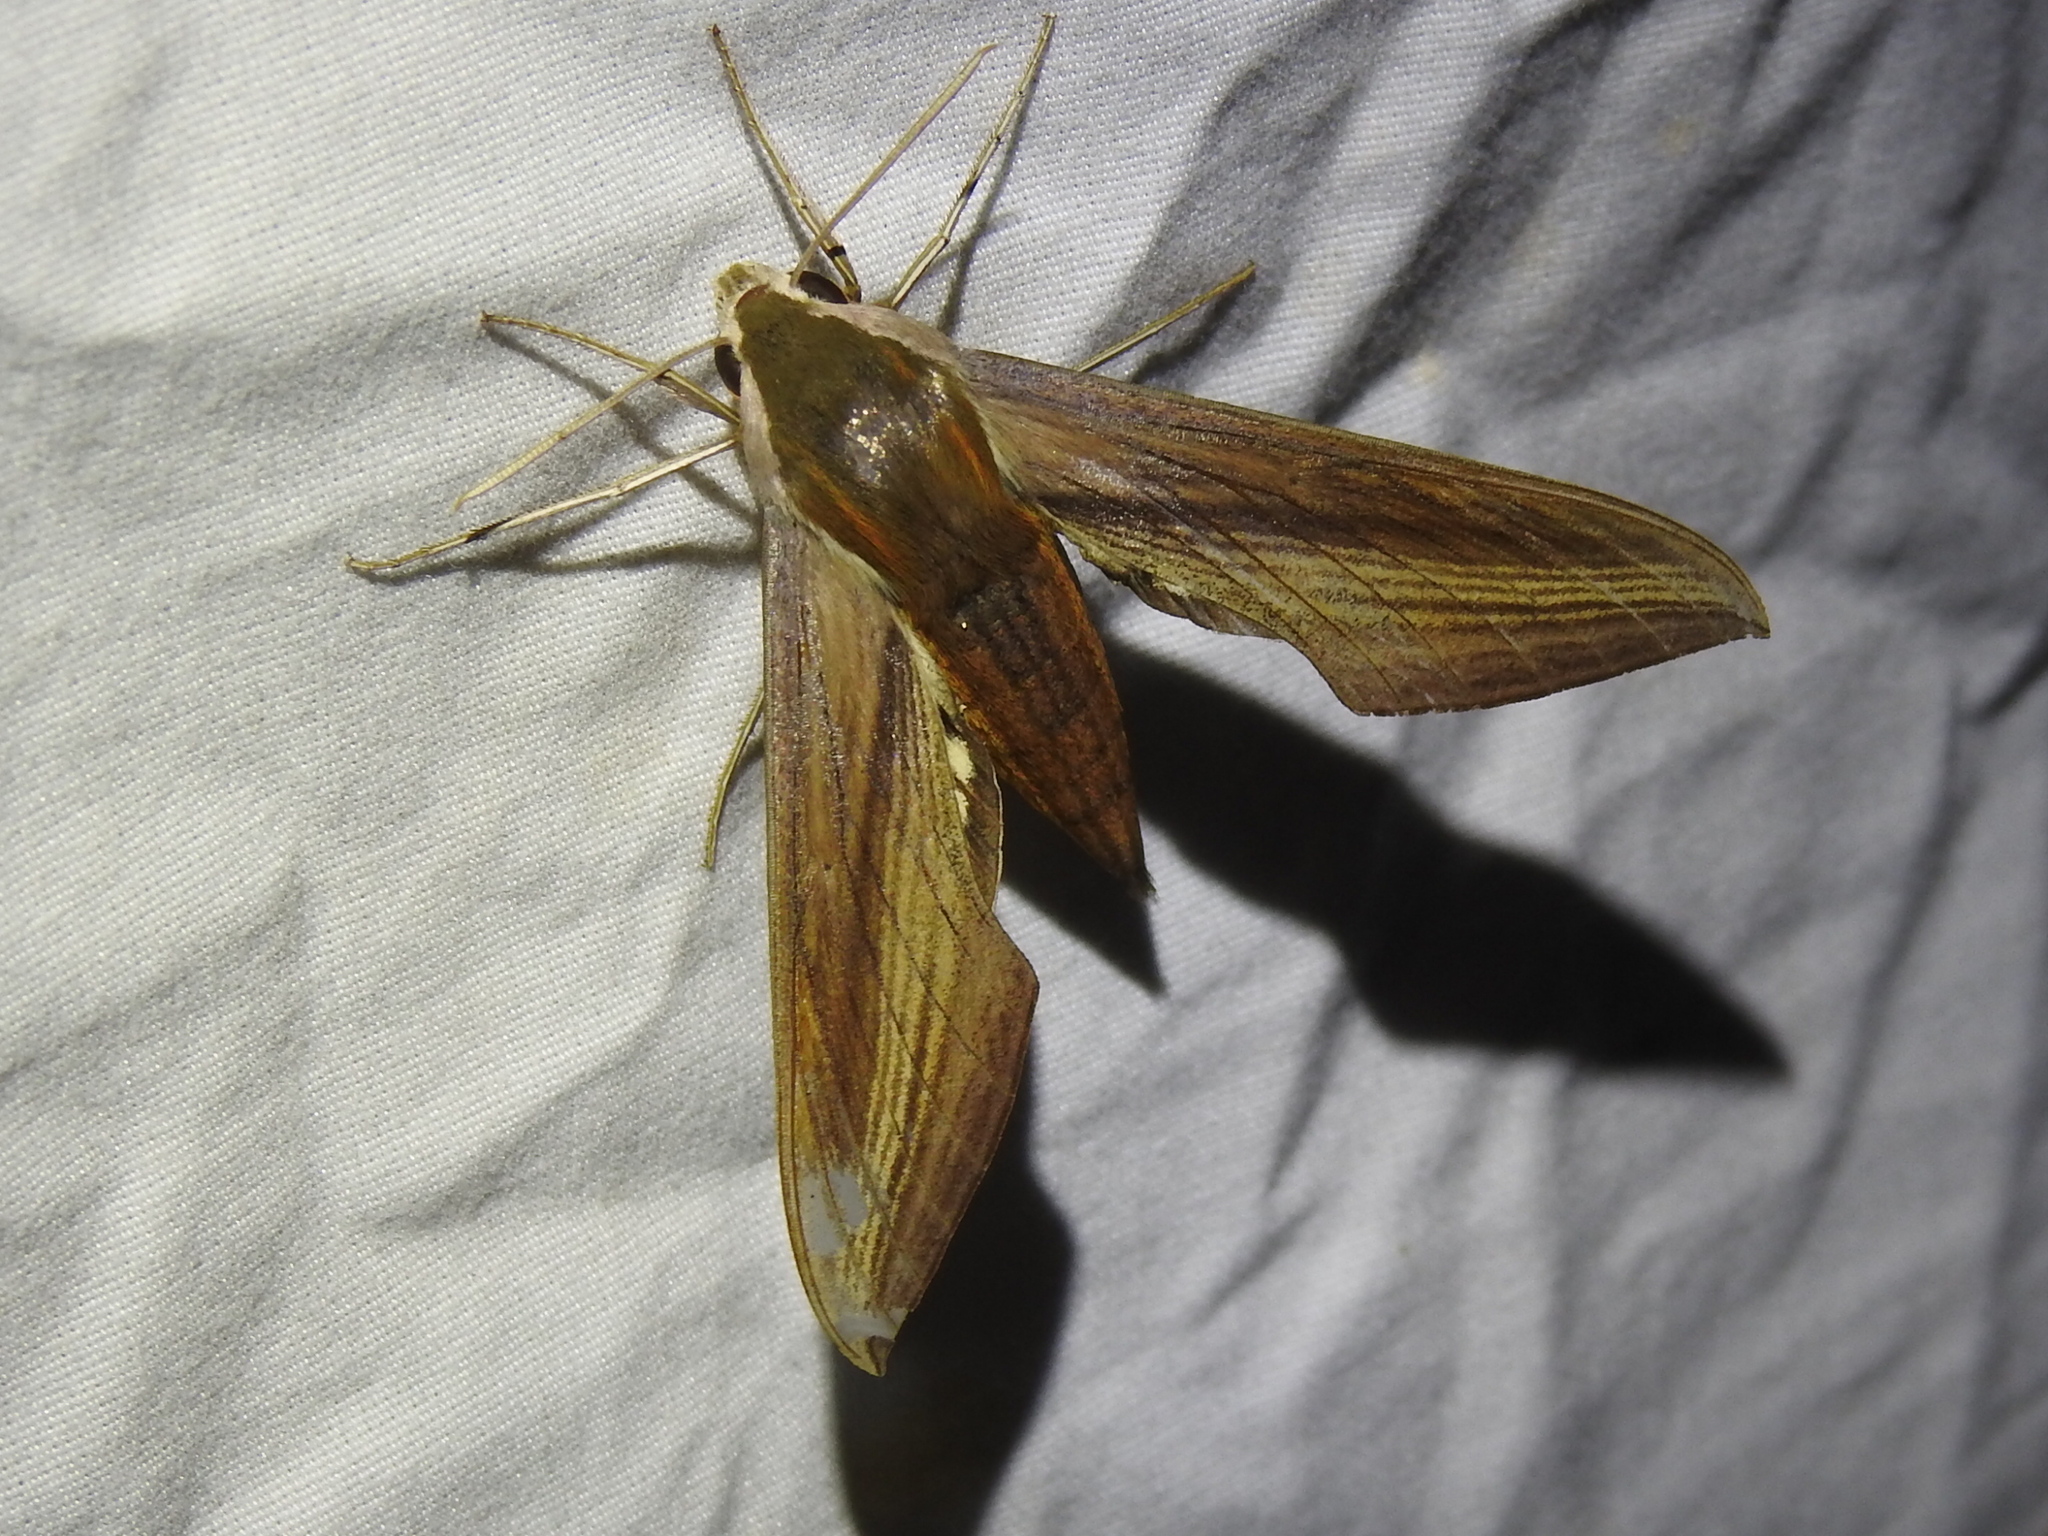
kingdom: Animalia
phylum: Arthropoda
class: Insecta
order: Lepidoptera
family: Sphingidae
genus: Xylophanes
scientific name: Xylophanes tersa
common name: Tersa sphinx
